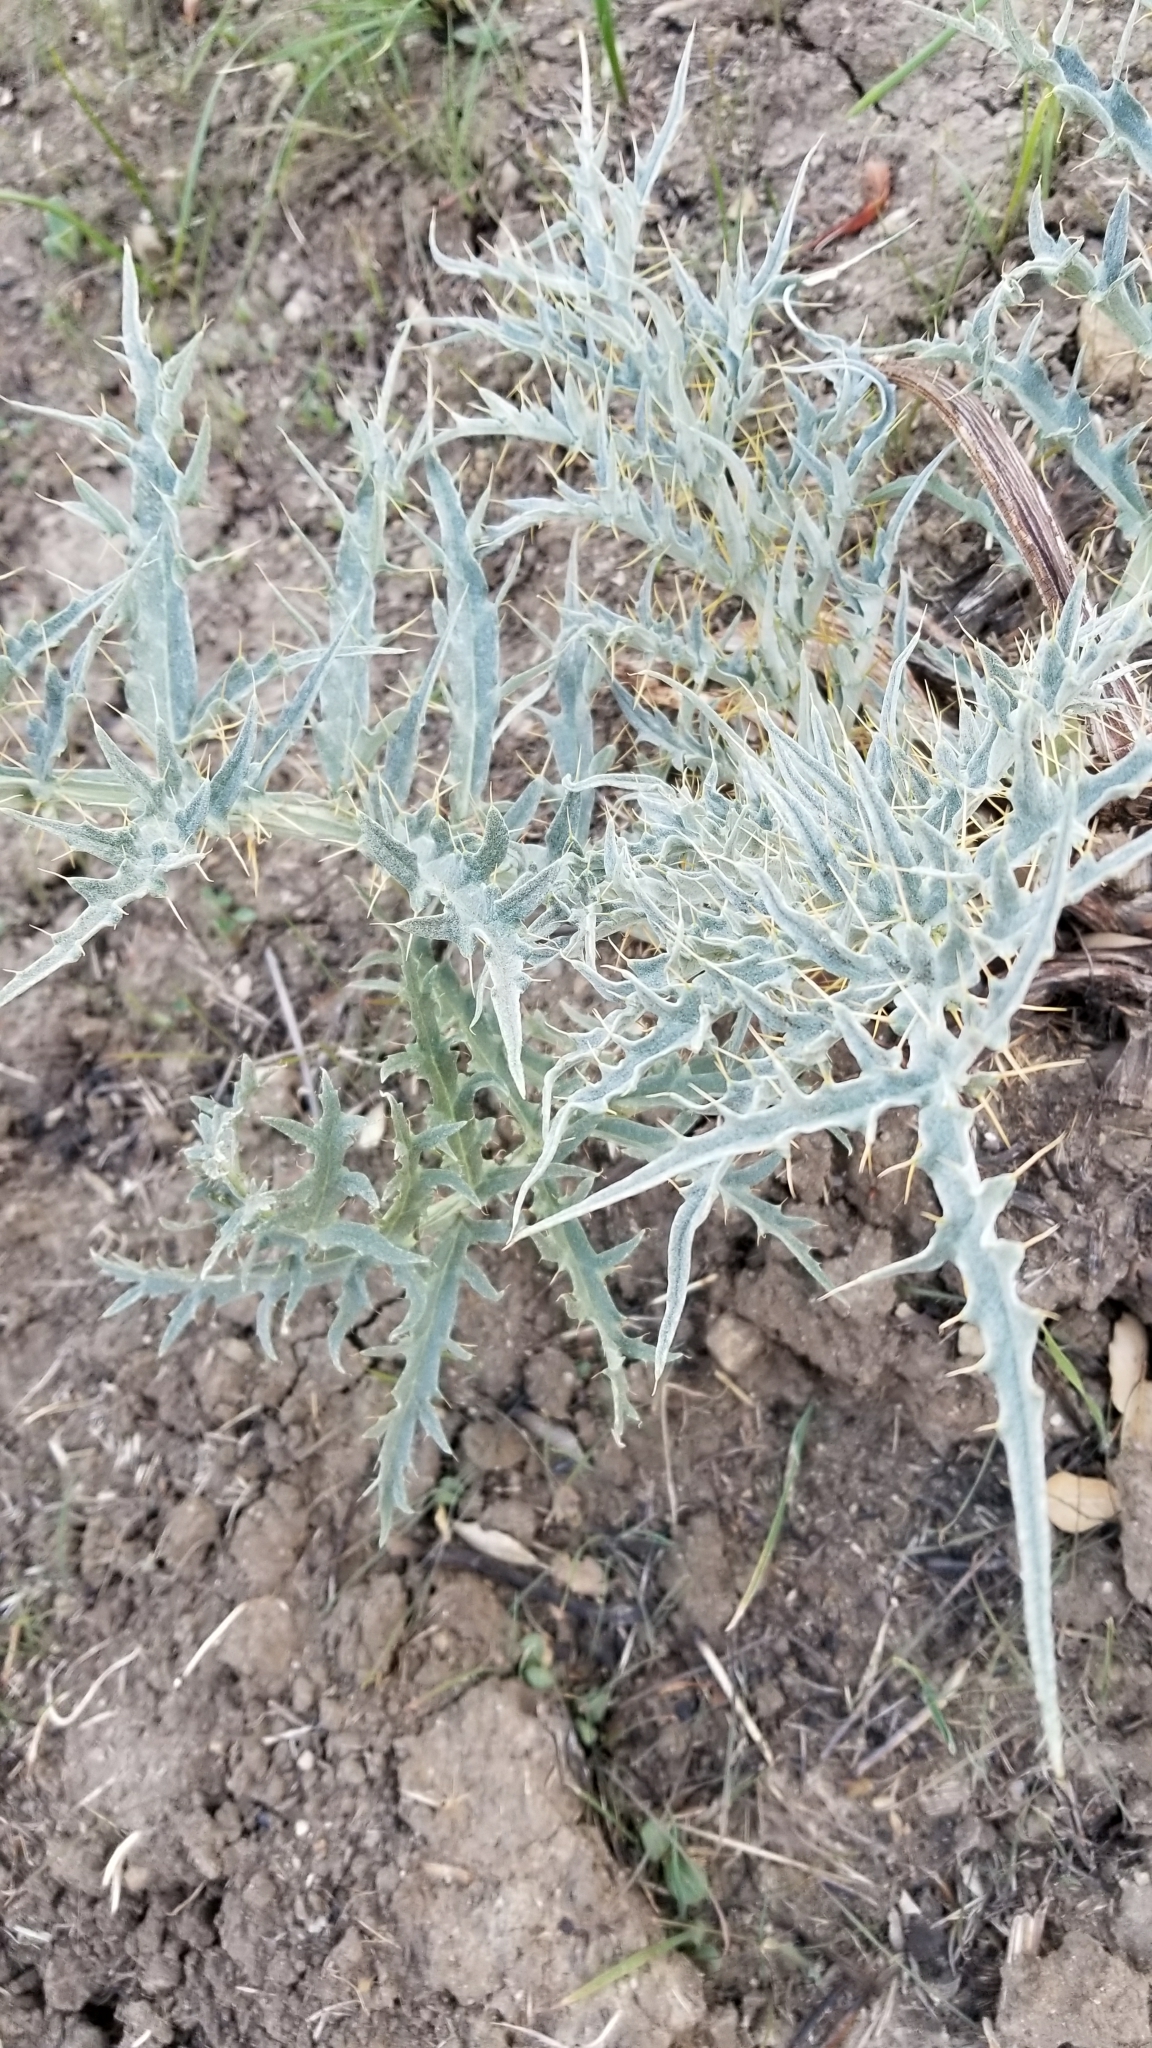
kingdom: Plantae
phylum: Tracheophyta
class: Magnoliopsida
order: Asterales
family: Asteraceae
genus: Cynara
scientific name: Cynara cardunculus
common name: Globe artichoke
